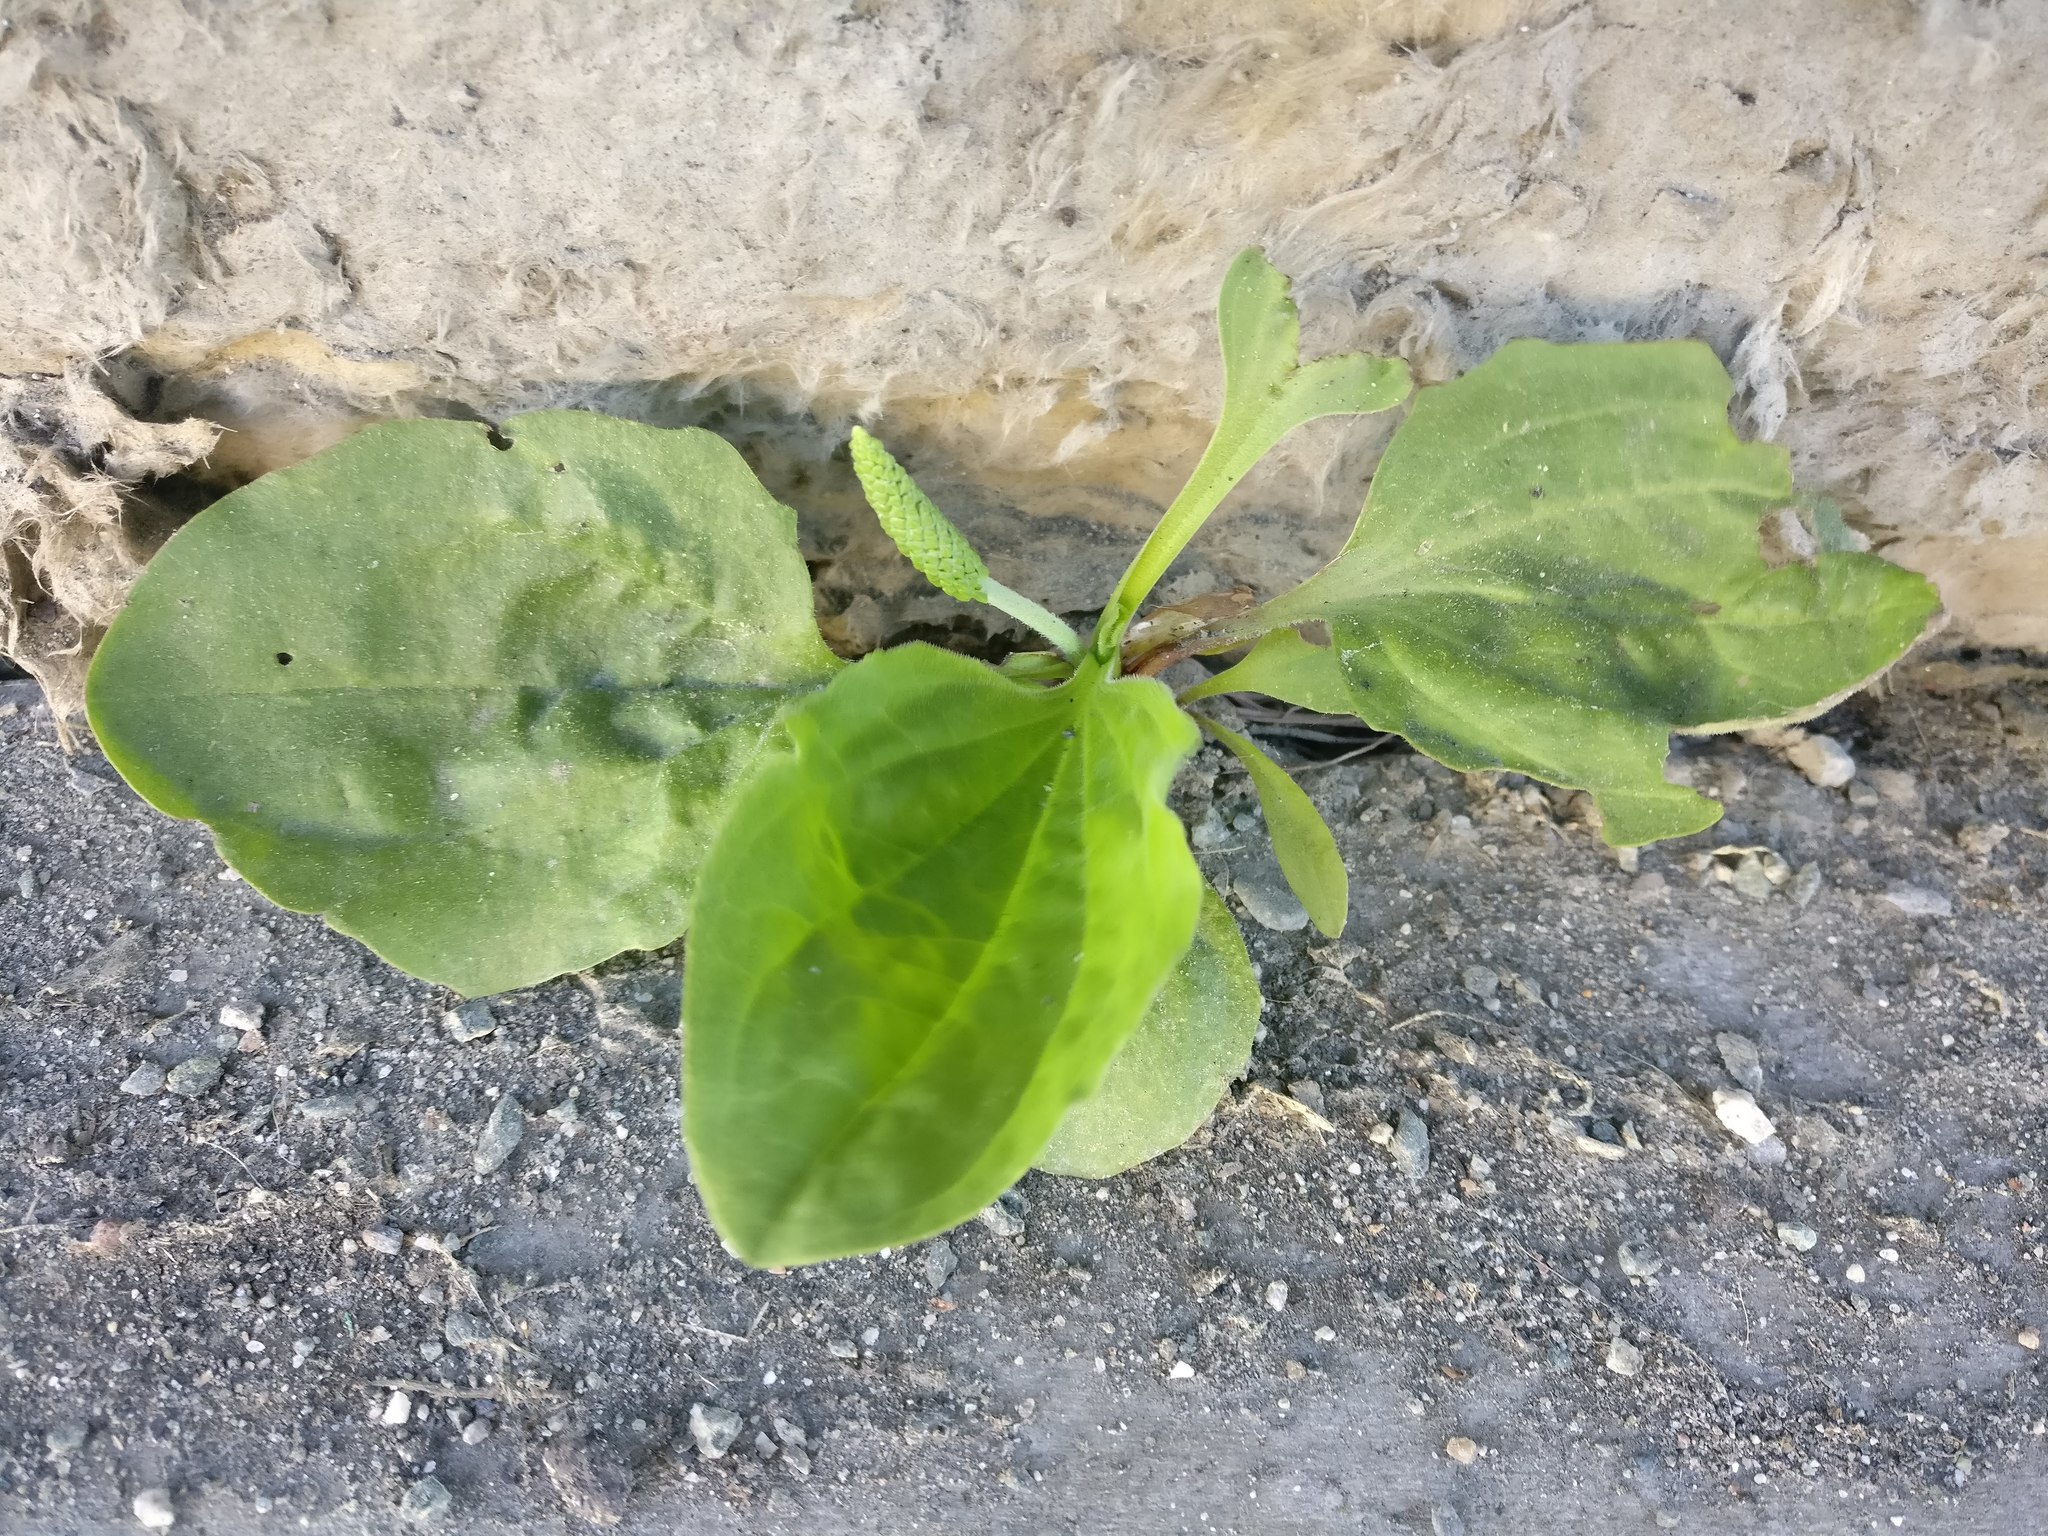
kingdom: Plantae
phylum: Tracheophyta
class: Magnoliopsida
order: Lamiales
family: Plantaginaceae
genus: Plantago
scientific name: Plantago major
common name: Common plantain
